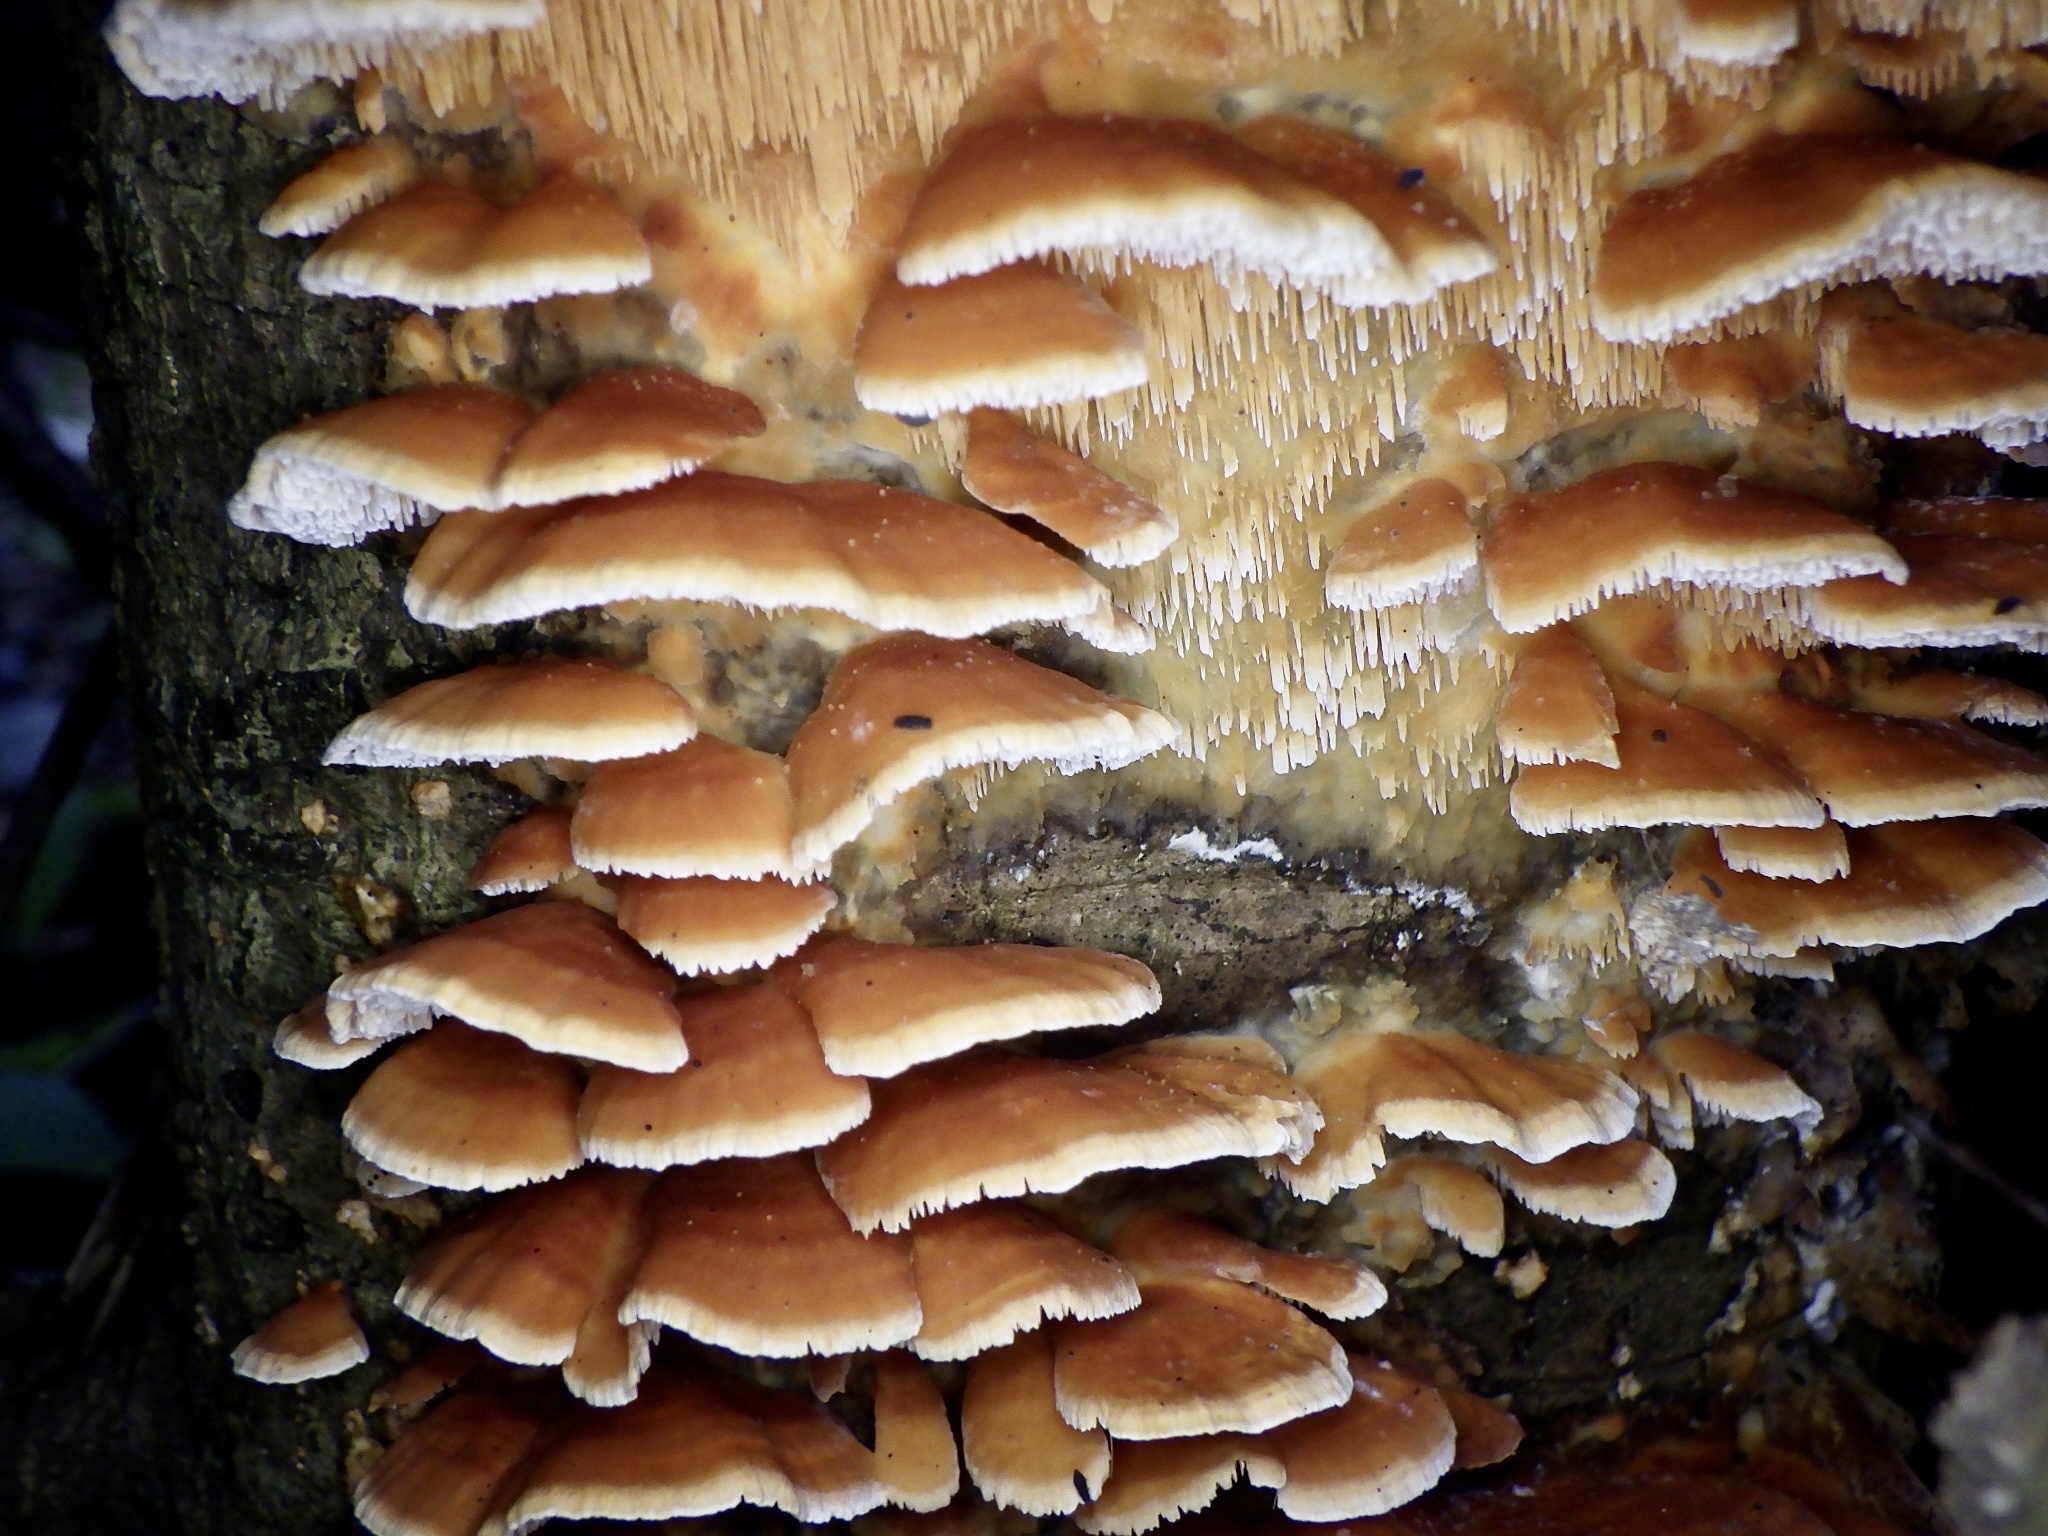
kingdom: Fungi
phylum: Basidiomycota
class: Agaricomycetes
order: Polyporales
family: Irpicaceae
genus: Irpex
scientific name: Irpex consors
